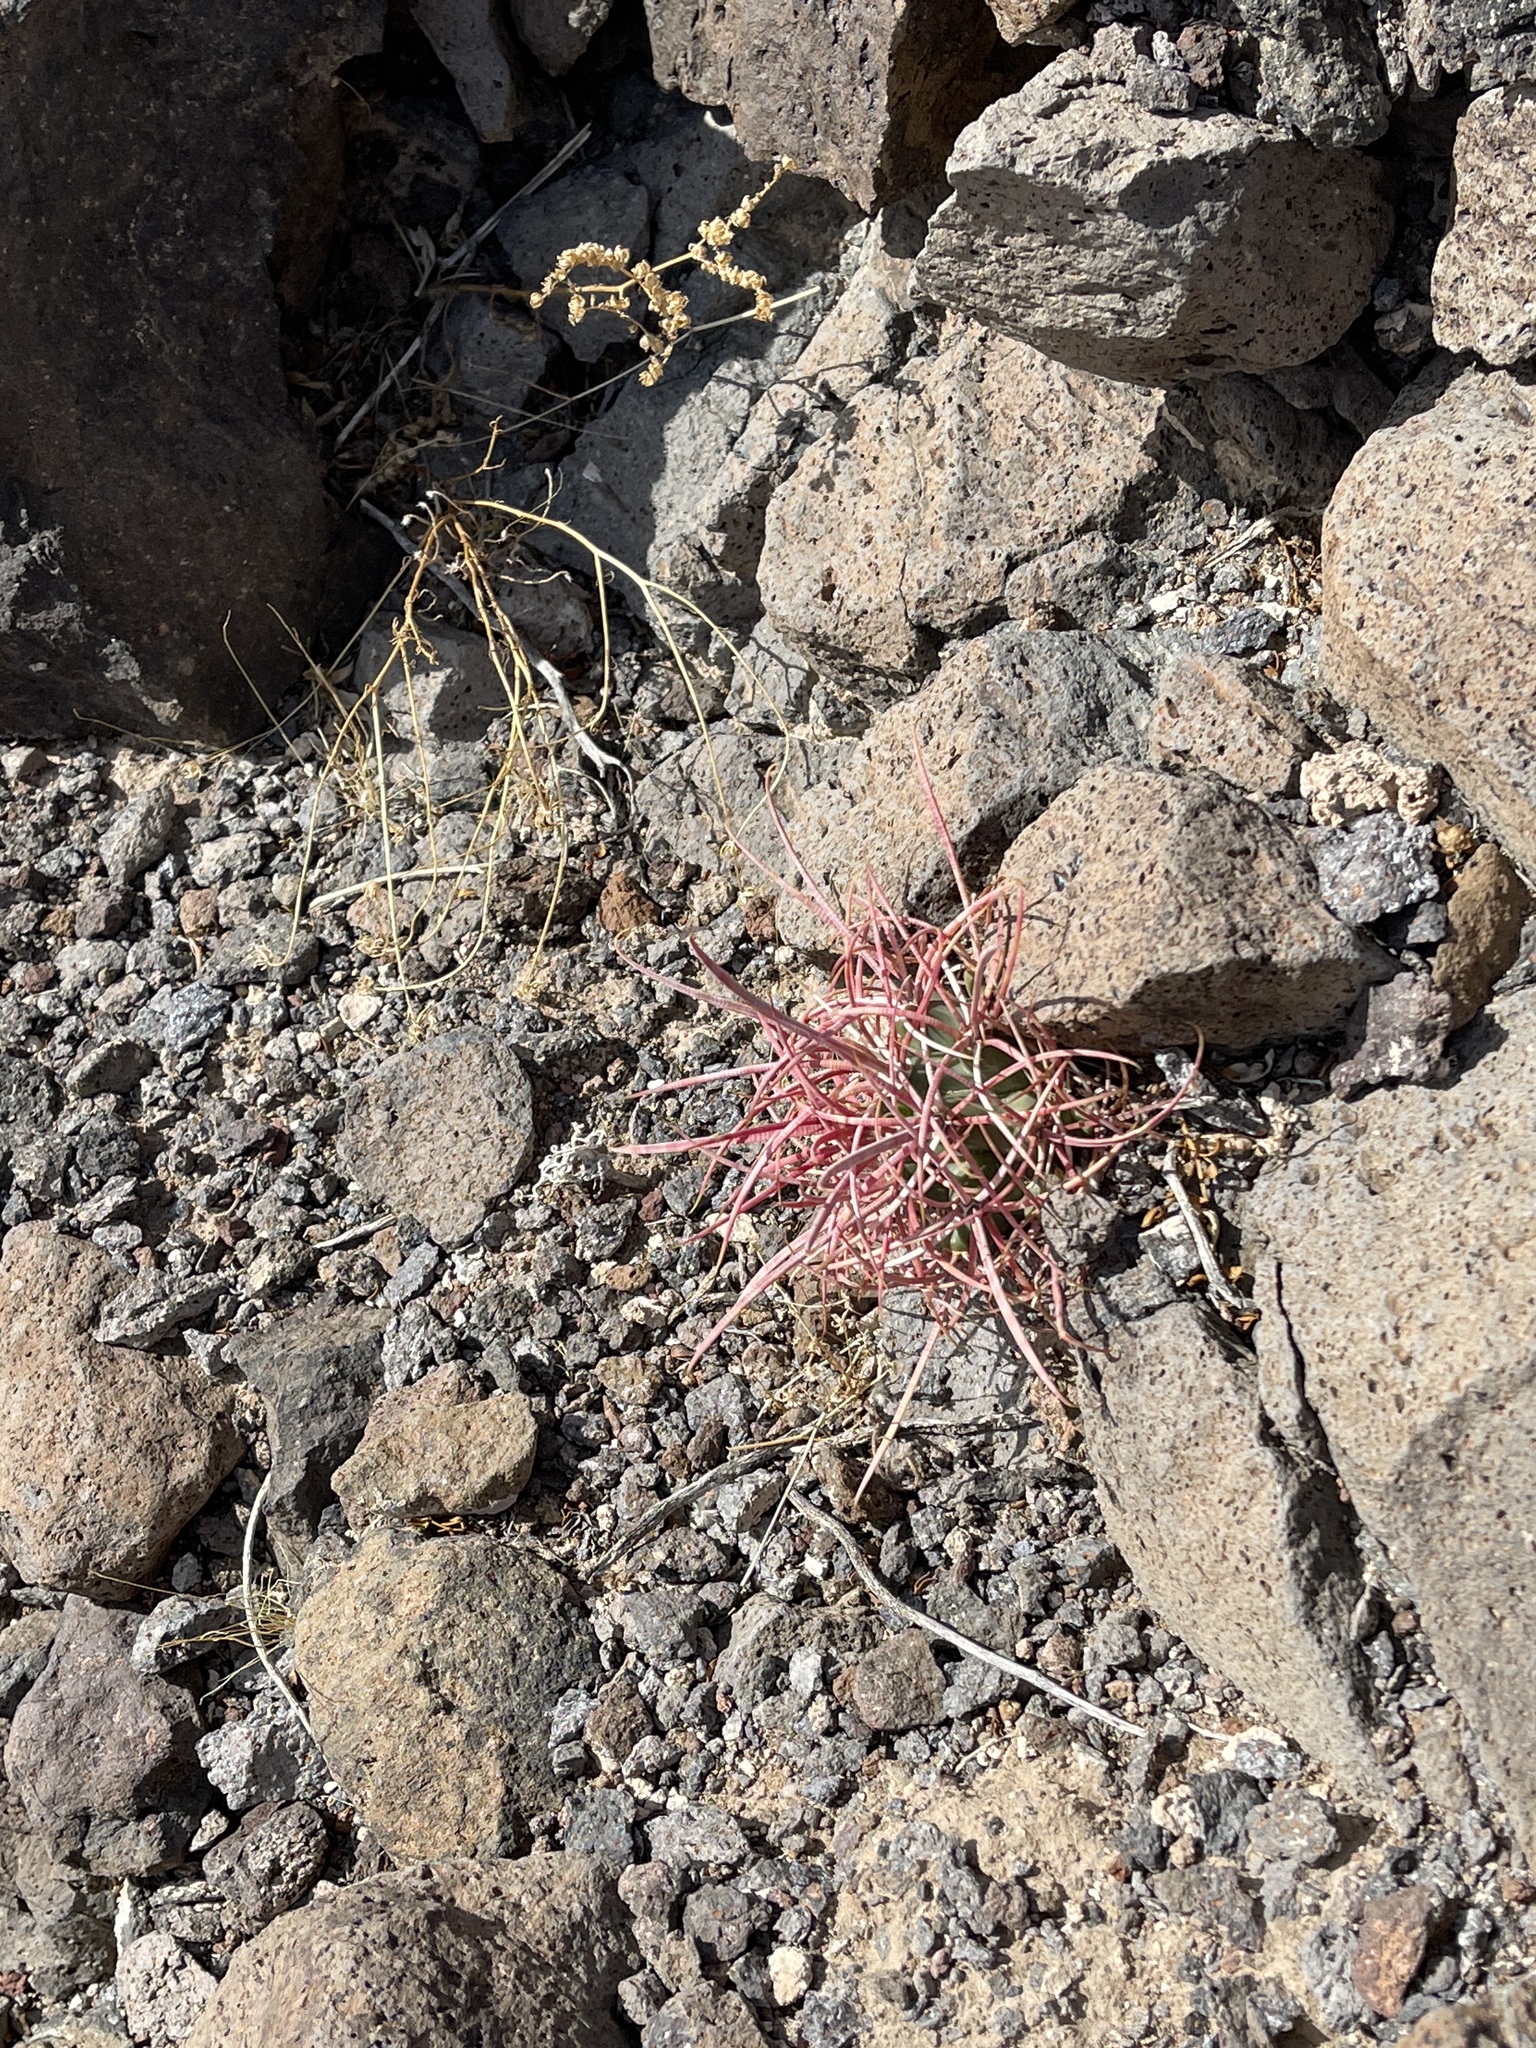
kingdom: Plantae
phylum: Tracheophyta
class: Magnoliopsida
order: Caryophyllales
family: Cactaceae
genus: Ferocactus
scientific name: Ferocactus cylindraceus
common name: California barrel cactus
